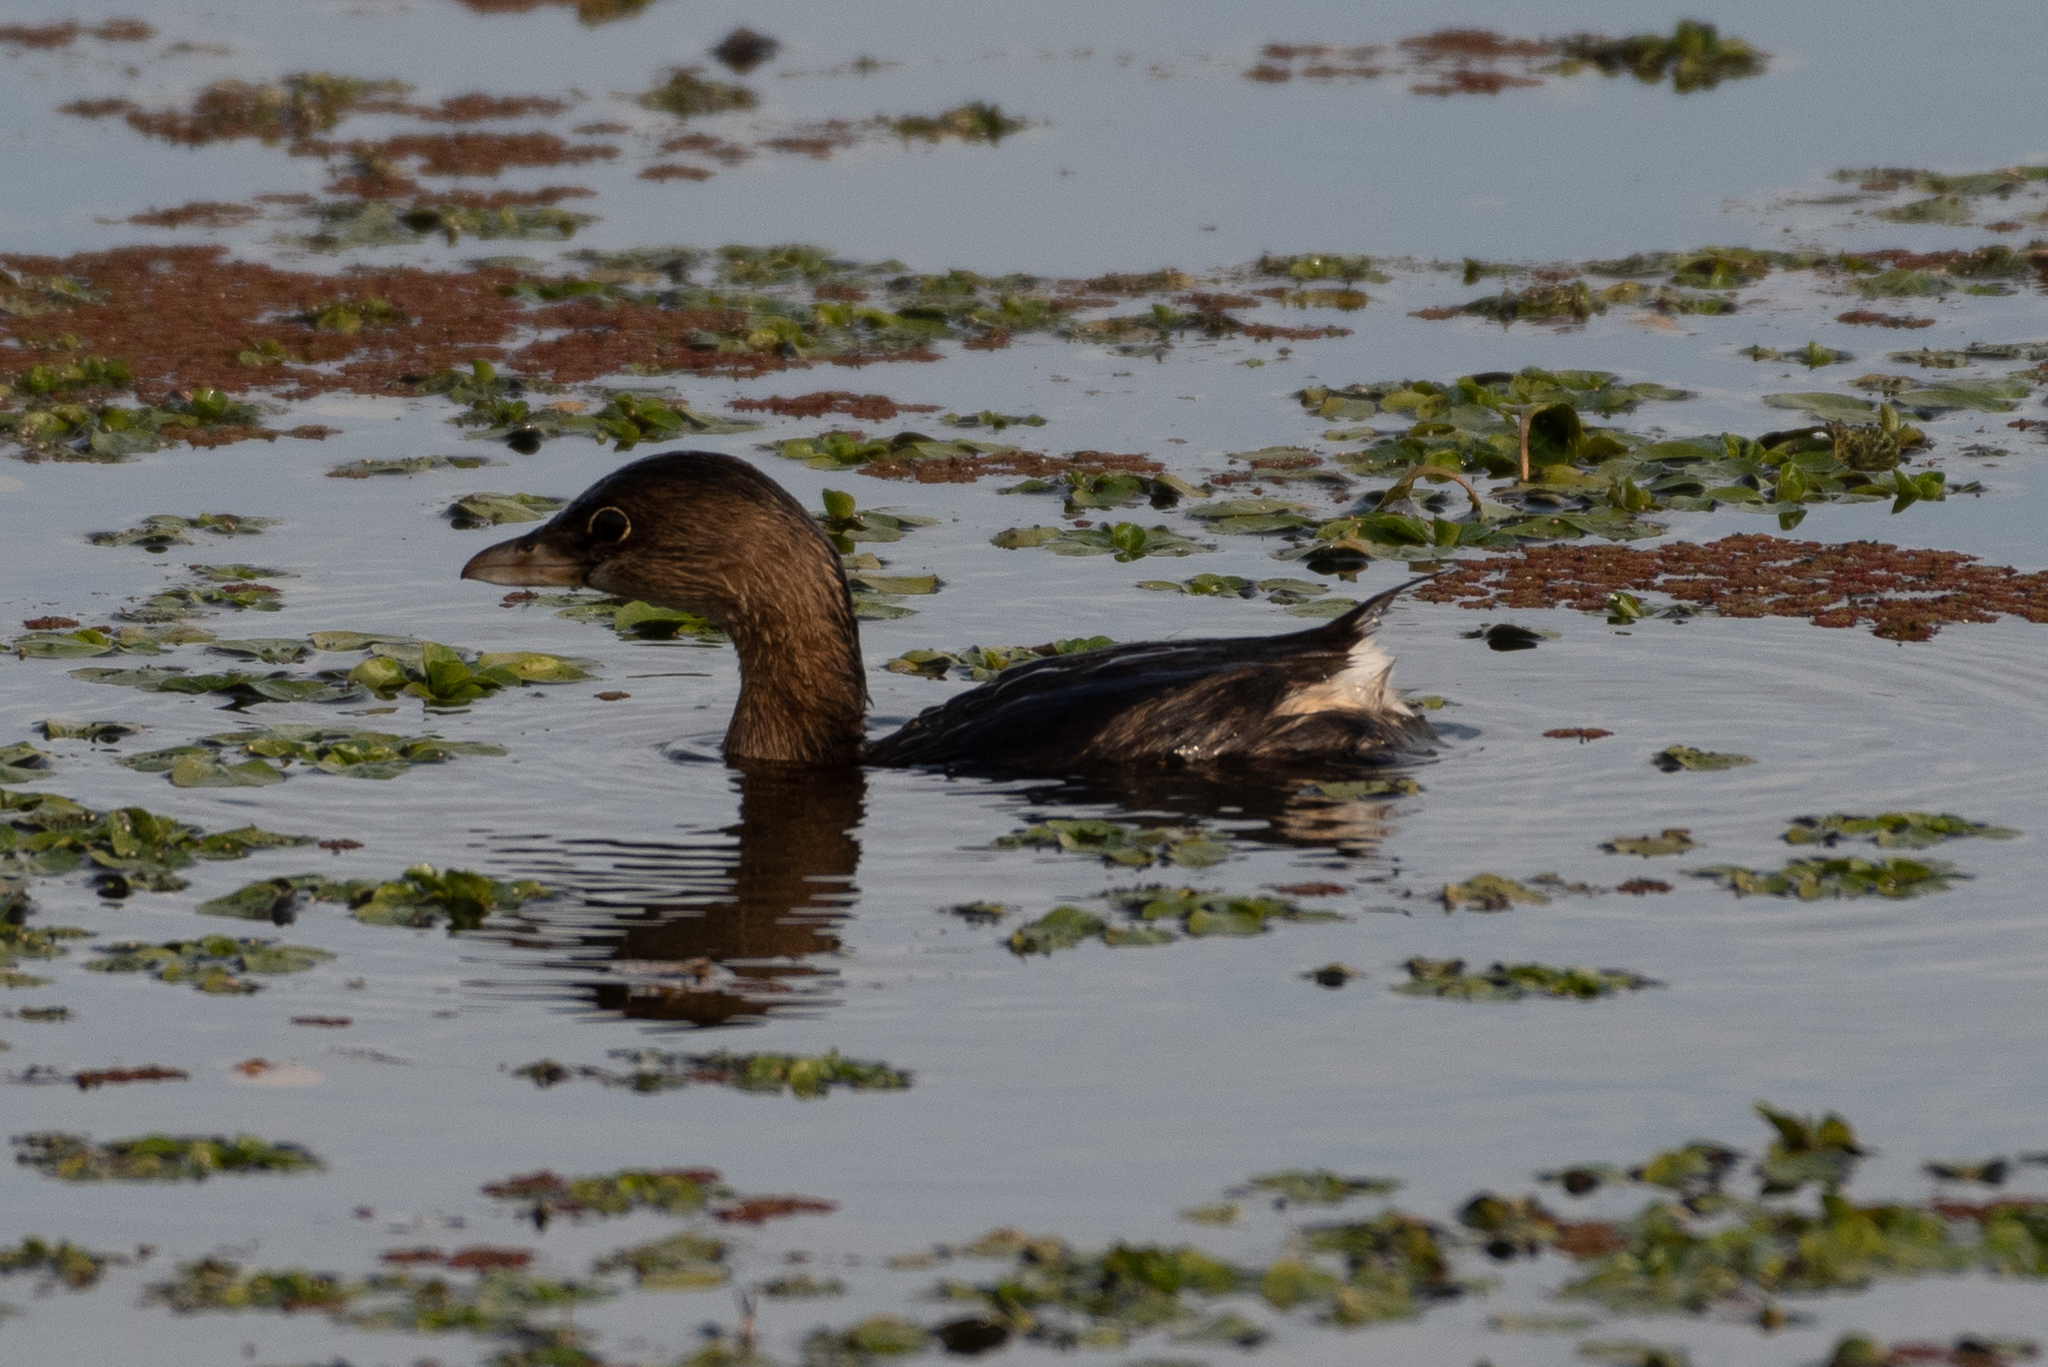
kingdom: Animalia
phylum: Chordata
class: Aves
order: Podicipediformes
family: Podicipedidae
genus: Podilymbus
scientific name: Podilymbus podiceps
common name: Pied-billed grebe
